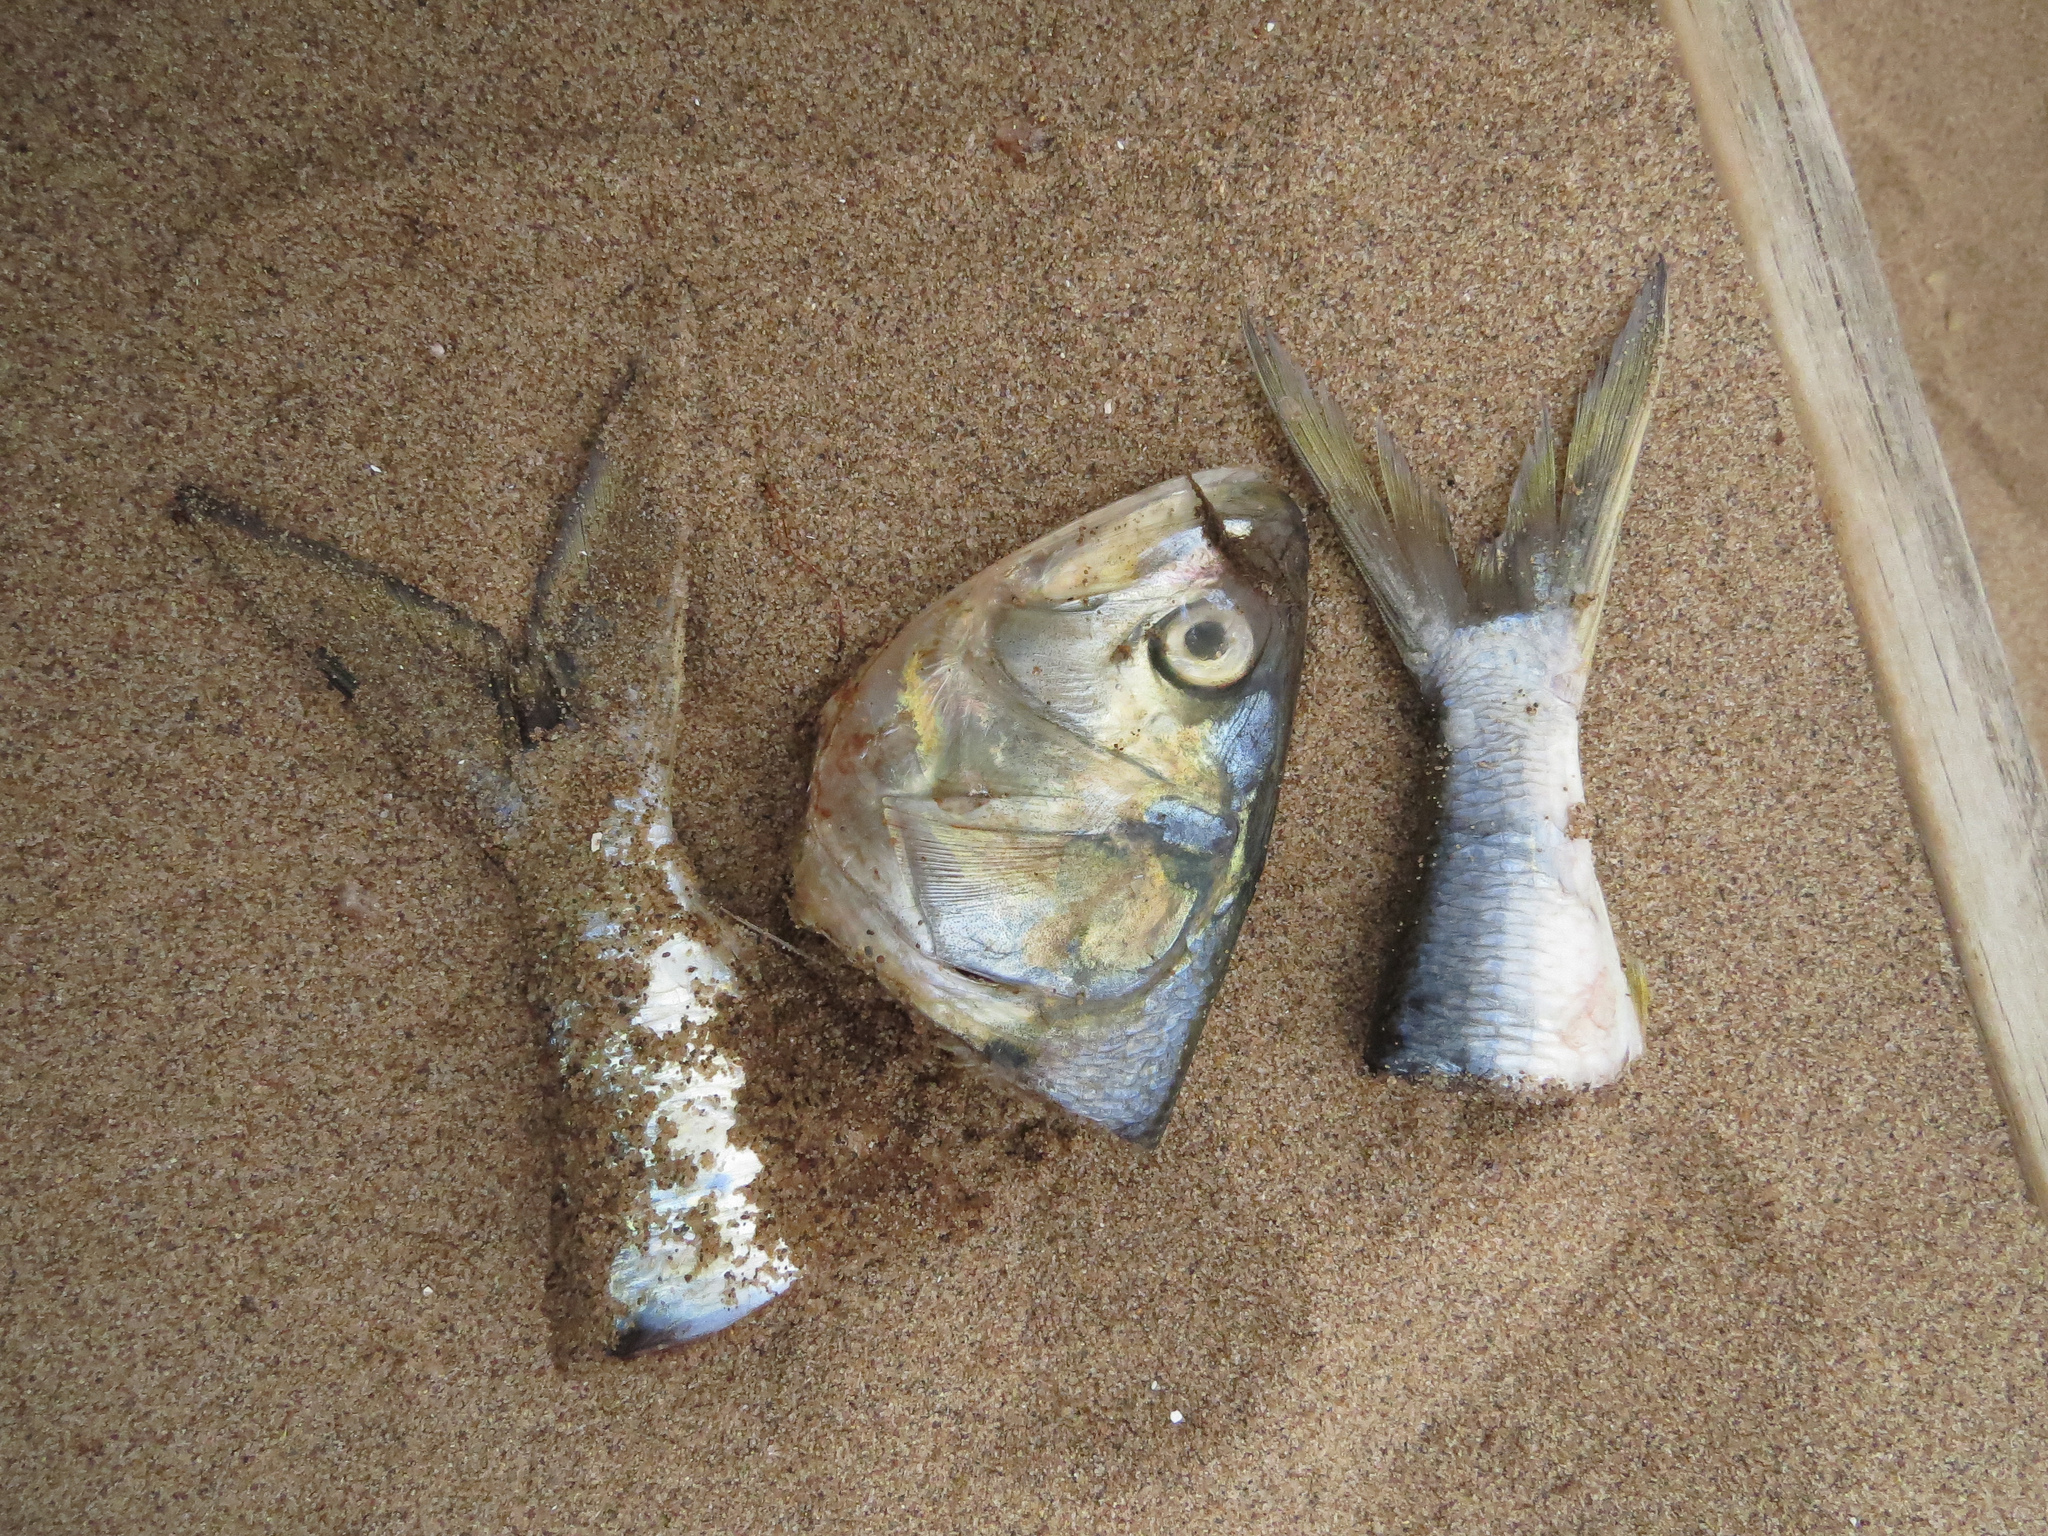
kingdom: Animalia
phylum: Chordata
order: Clupeiformes
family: Clupeidae
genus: Brevoortia
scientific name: Brevoortia tyrannus
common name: Atlantic menhaden
